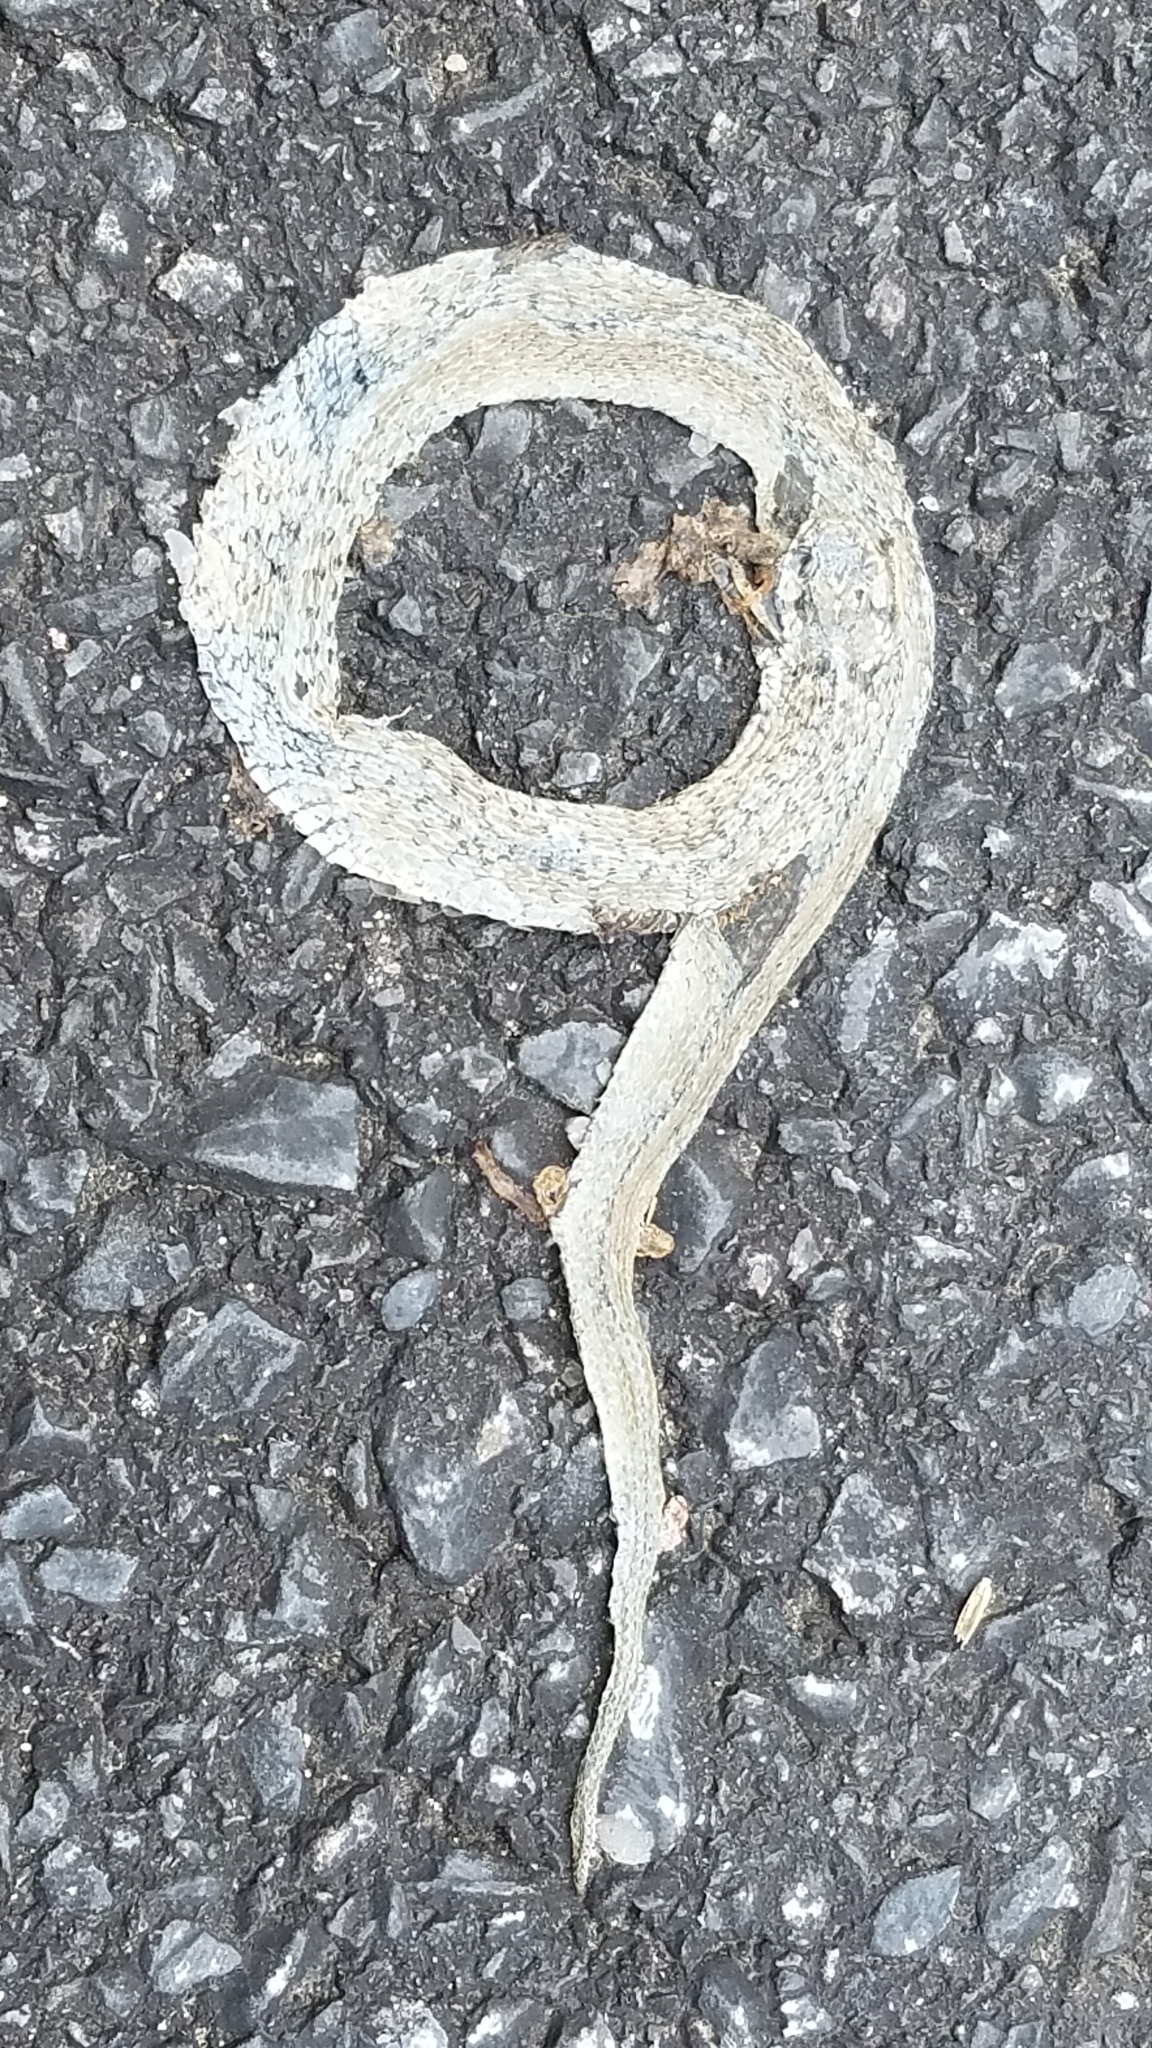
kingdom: Animalia
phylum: Chordata
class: Squamata
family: Colubridae
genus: Storeria
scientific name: Storeria dekayi
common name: (dekay’s) brown snake
